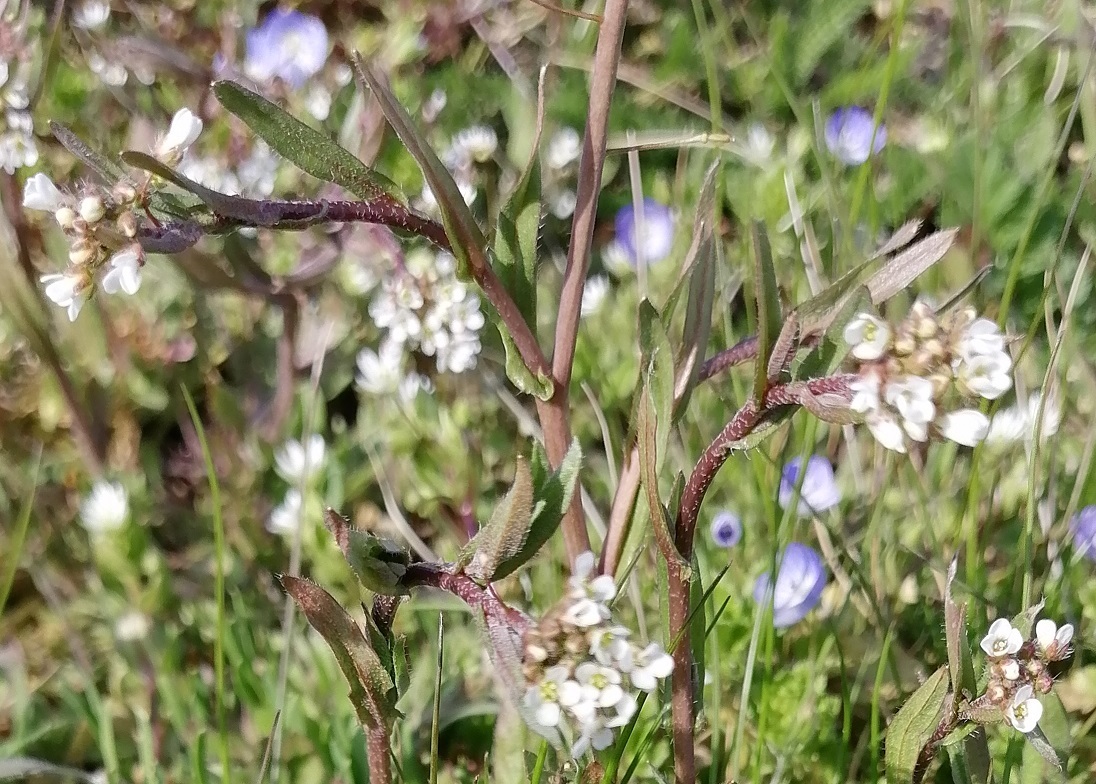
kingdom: Plantae
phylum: Tracheophyta
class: Magnoliopsida
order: Brassicales
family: Brassicaceae
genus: Capsella
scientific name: Capsella bursa-pastoris
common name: Shepherd's purse
